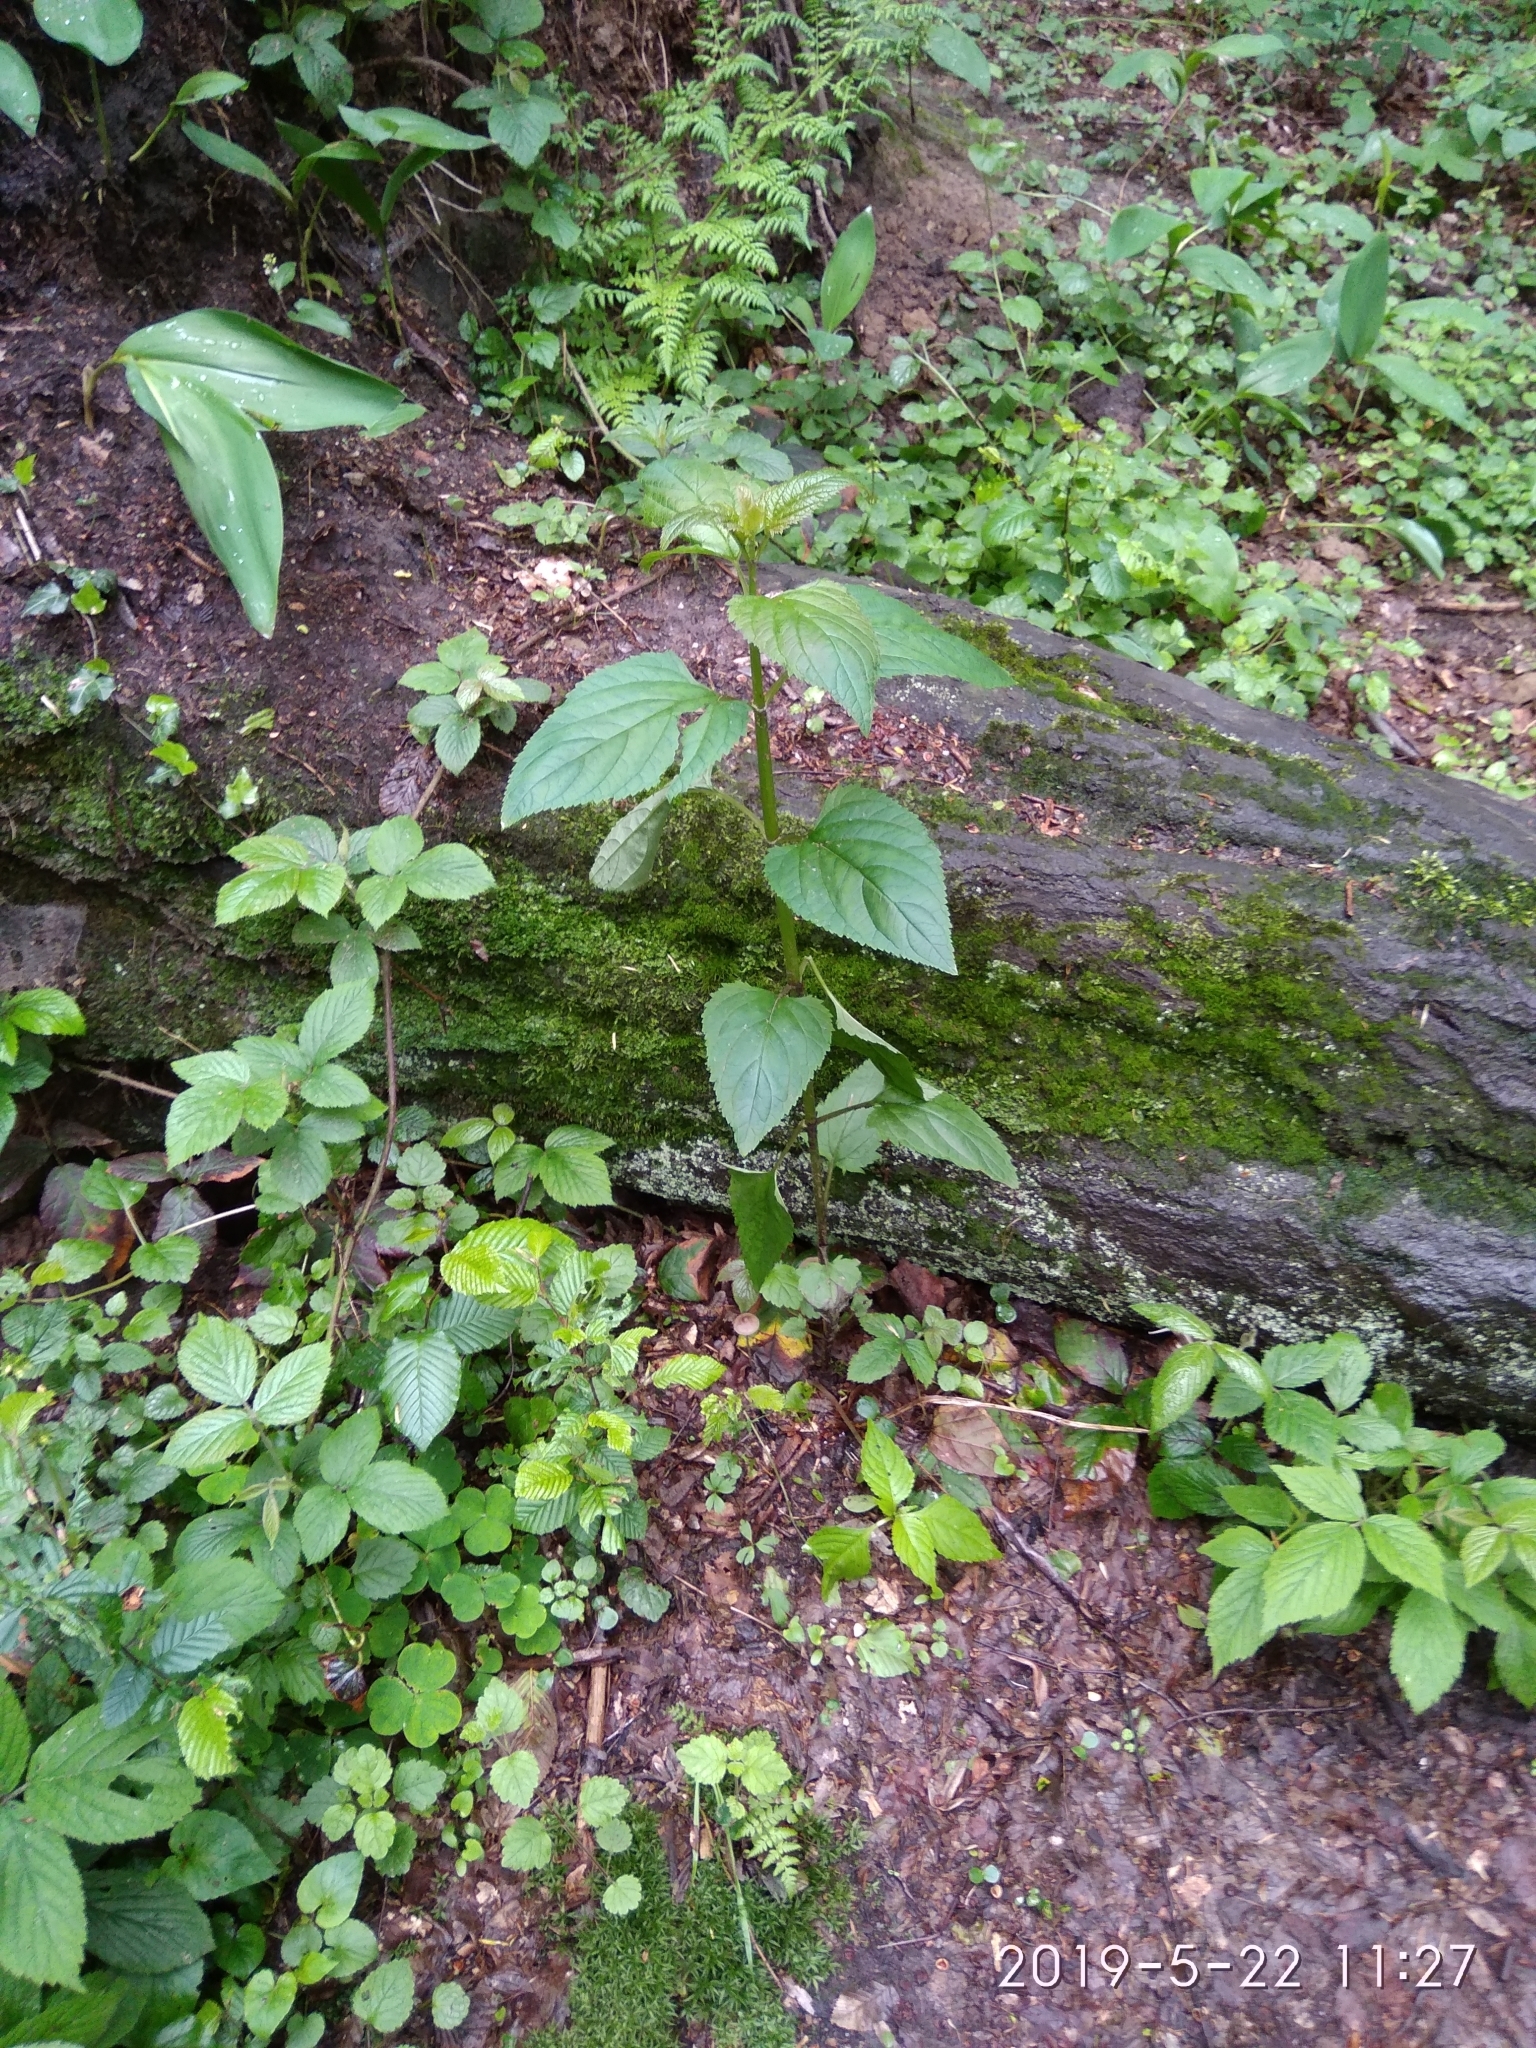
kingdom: Plantae
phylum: Tracheophyta
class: Magnoliopsida
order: Lamiales
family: Scrophulariaceae
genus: Scrophularia
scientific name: Scrophularia nodosa
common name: Common figwort
